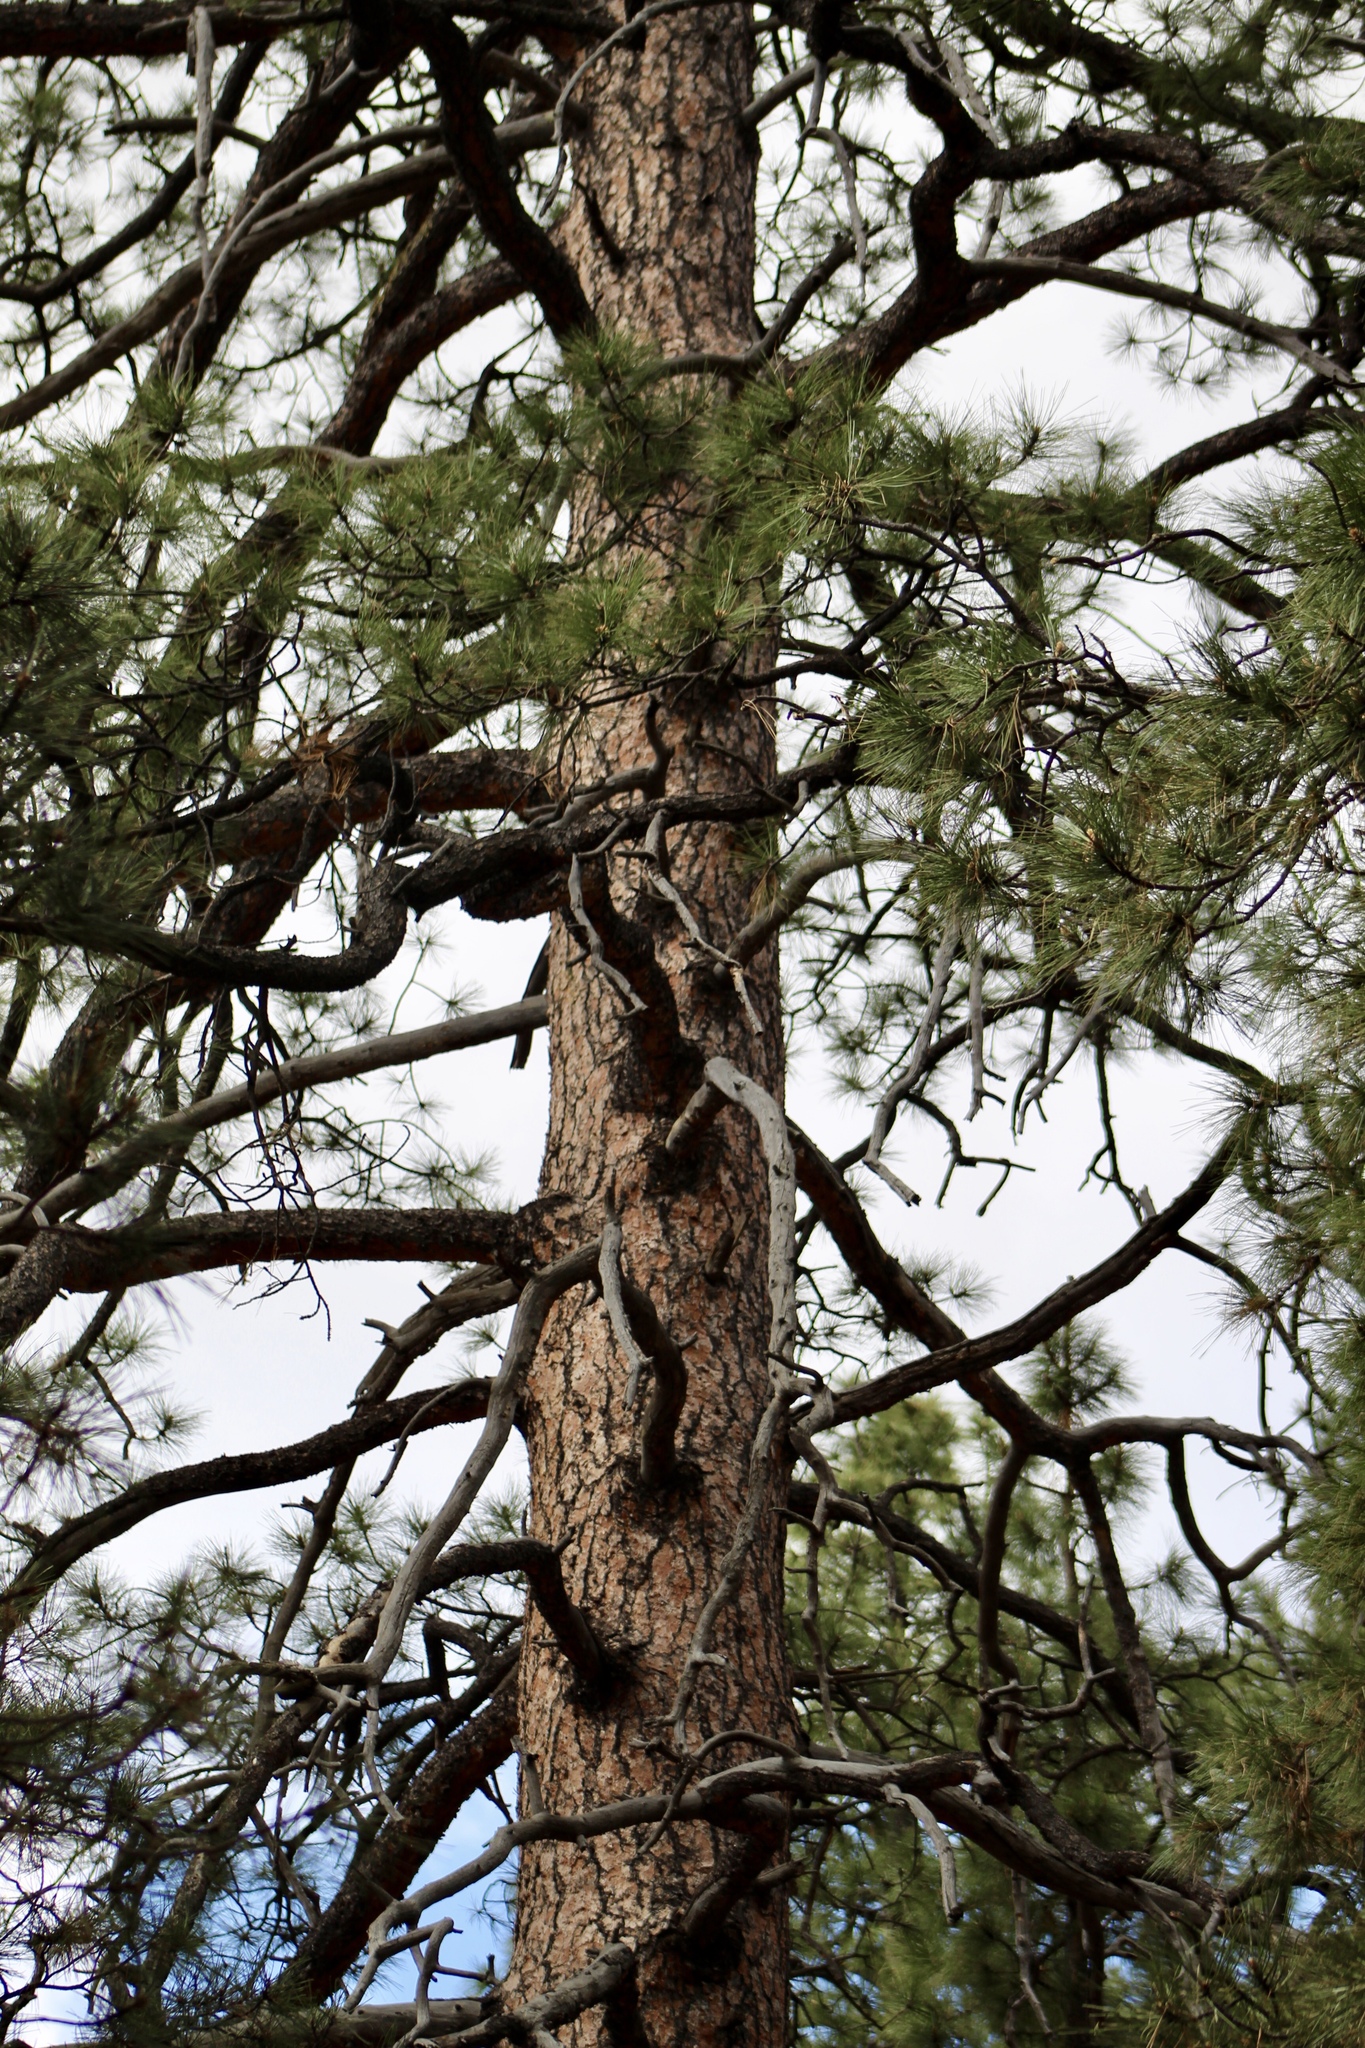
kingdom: Plantae
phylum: Tracheophyta
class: Pinopsida
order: Pinales
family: Pinaceae
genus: Pinus
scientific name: Pinus ponderosa
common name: Western yellow-pine
